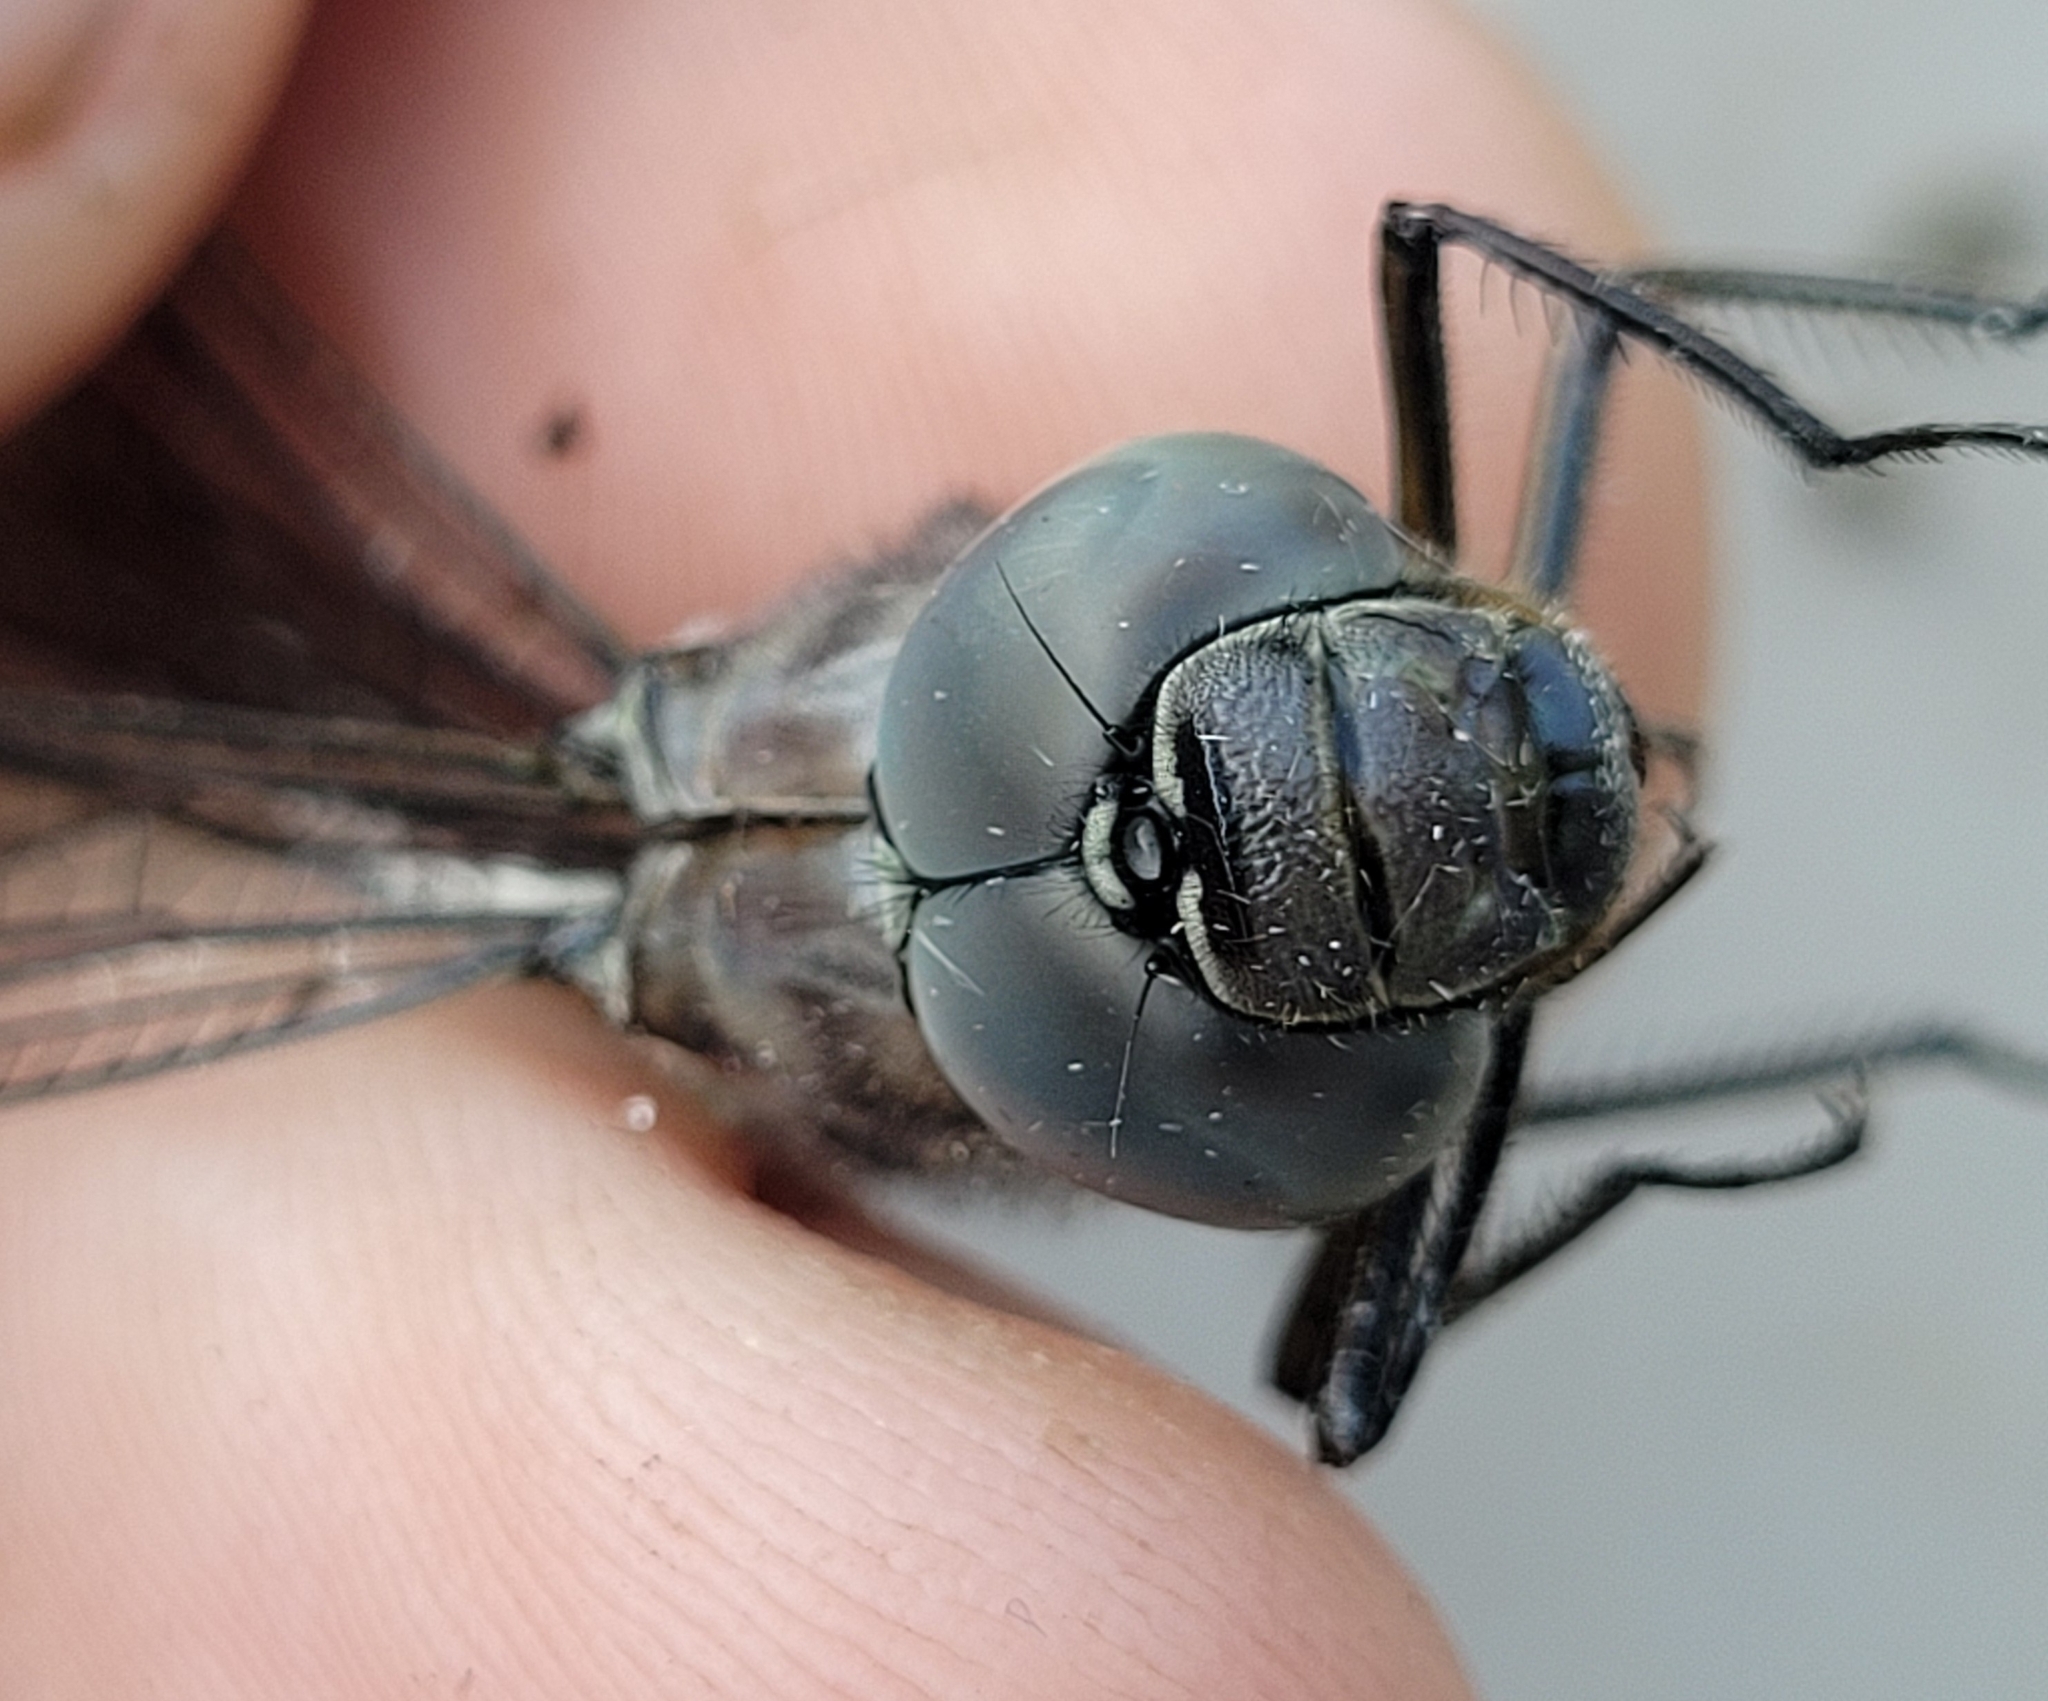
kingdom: Animalia
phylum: Arthropoda
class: Insecta
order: Odonata
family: Aeshnidae
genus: Aeshna
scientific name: Aeshna eremita
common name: Lake darner
